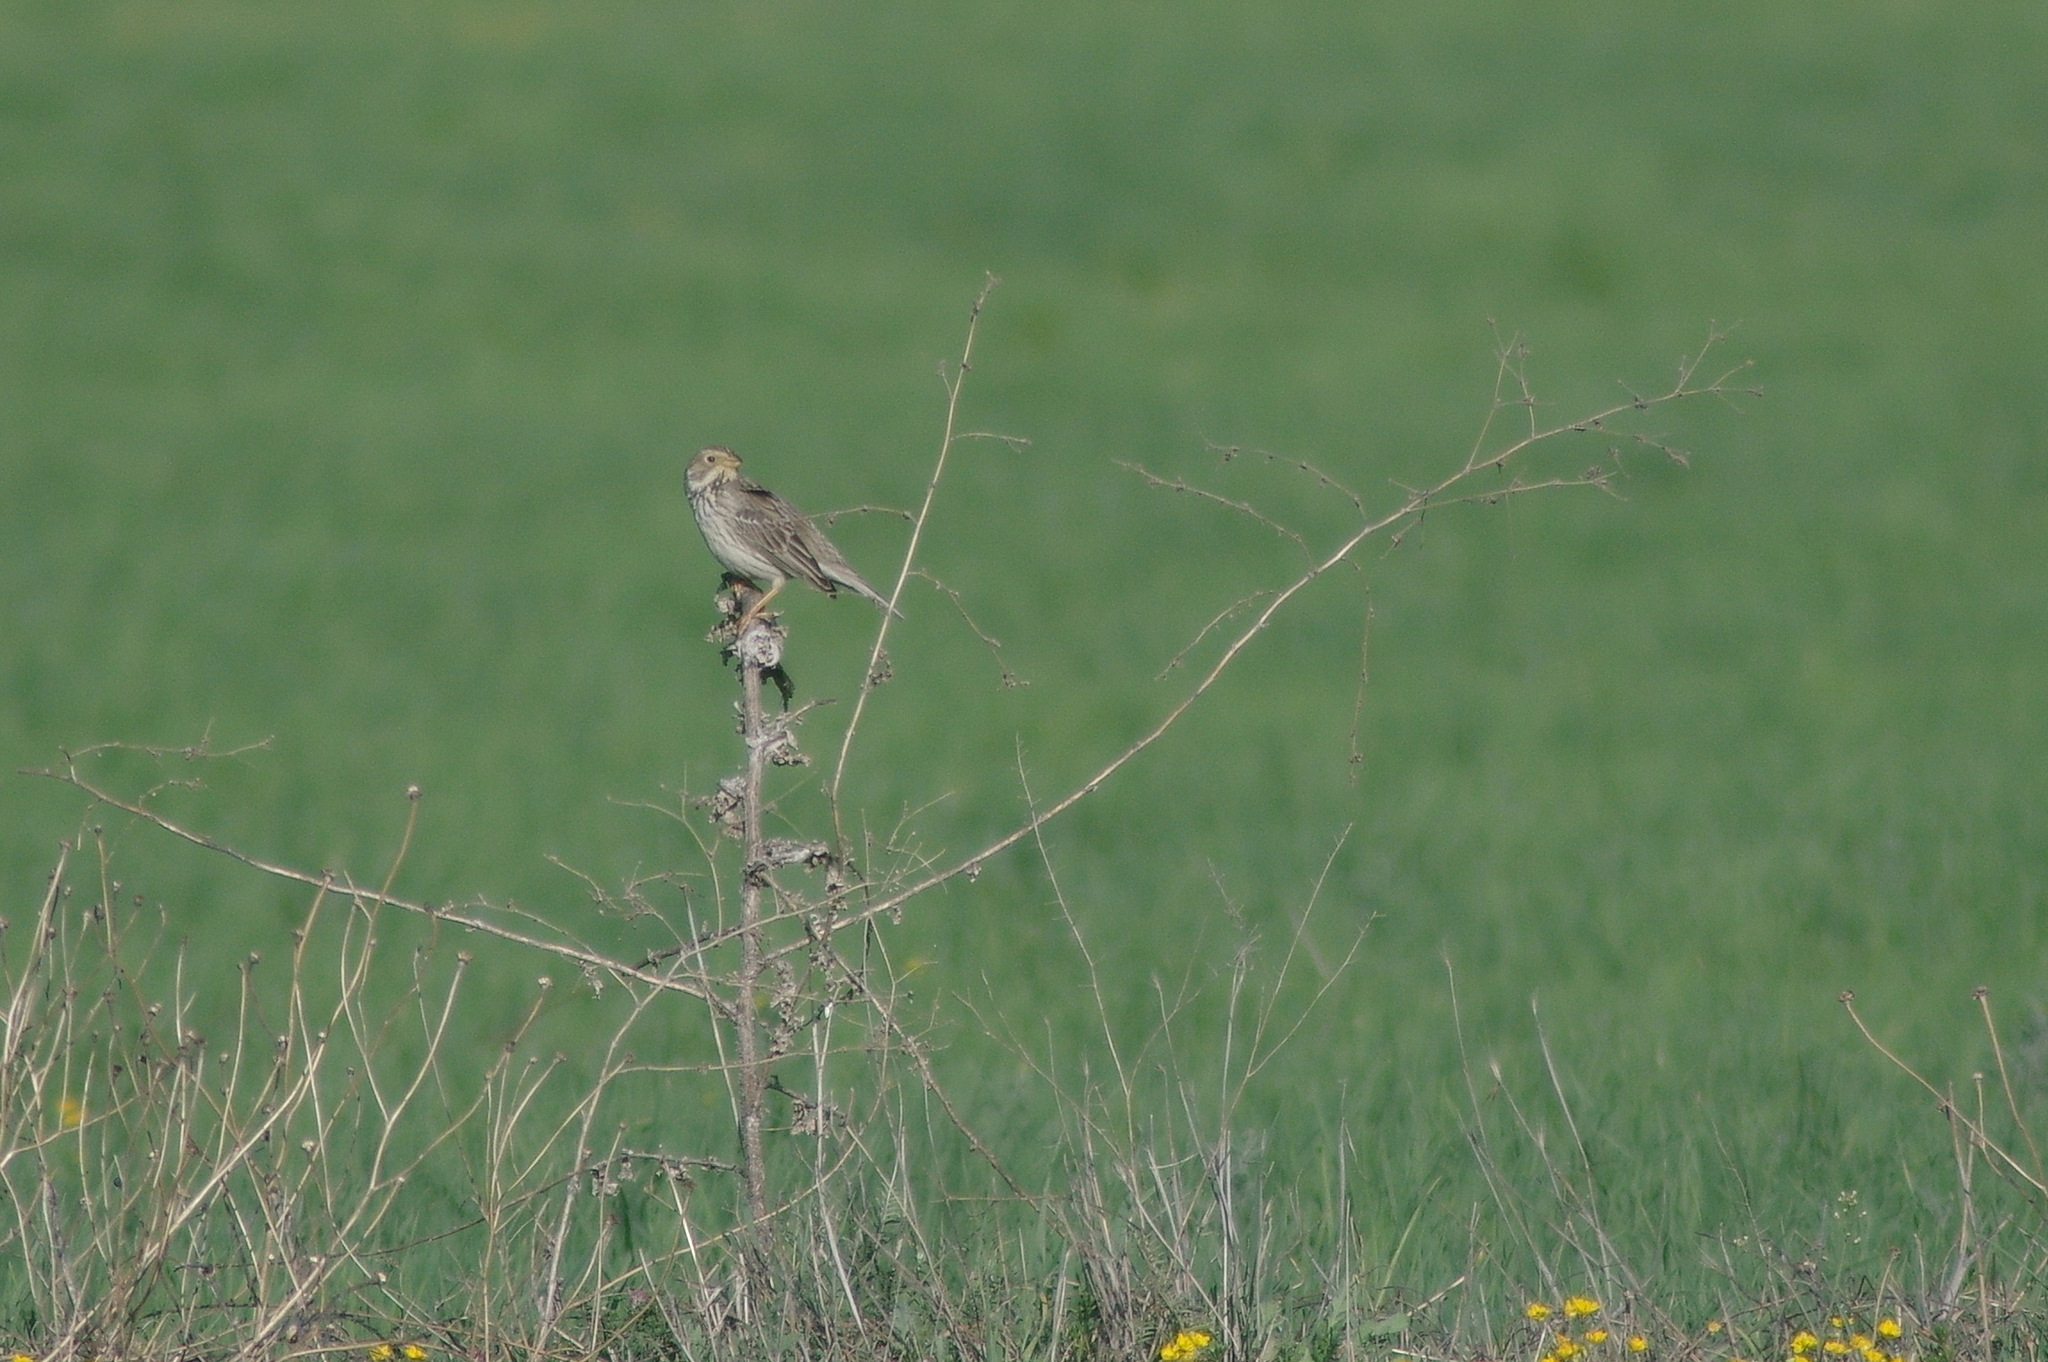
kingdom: Animalia
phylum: Chordata
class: Aves
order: Passeriformes
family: Emberizidae
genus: Emberiza
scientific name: Emberiza calandra
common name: Corn bunting
